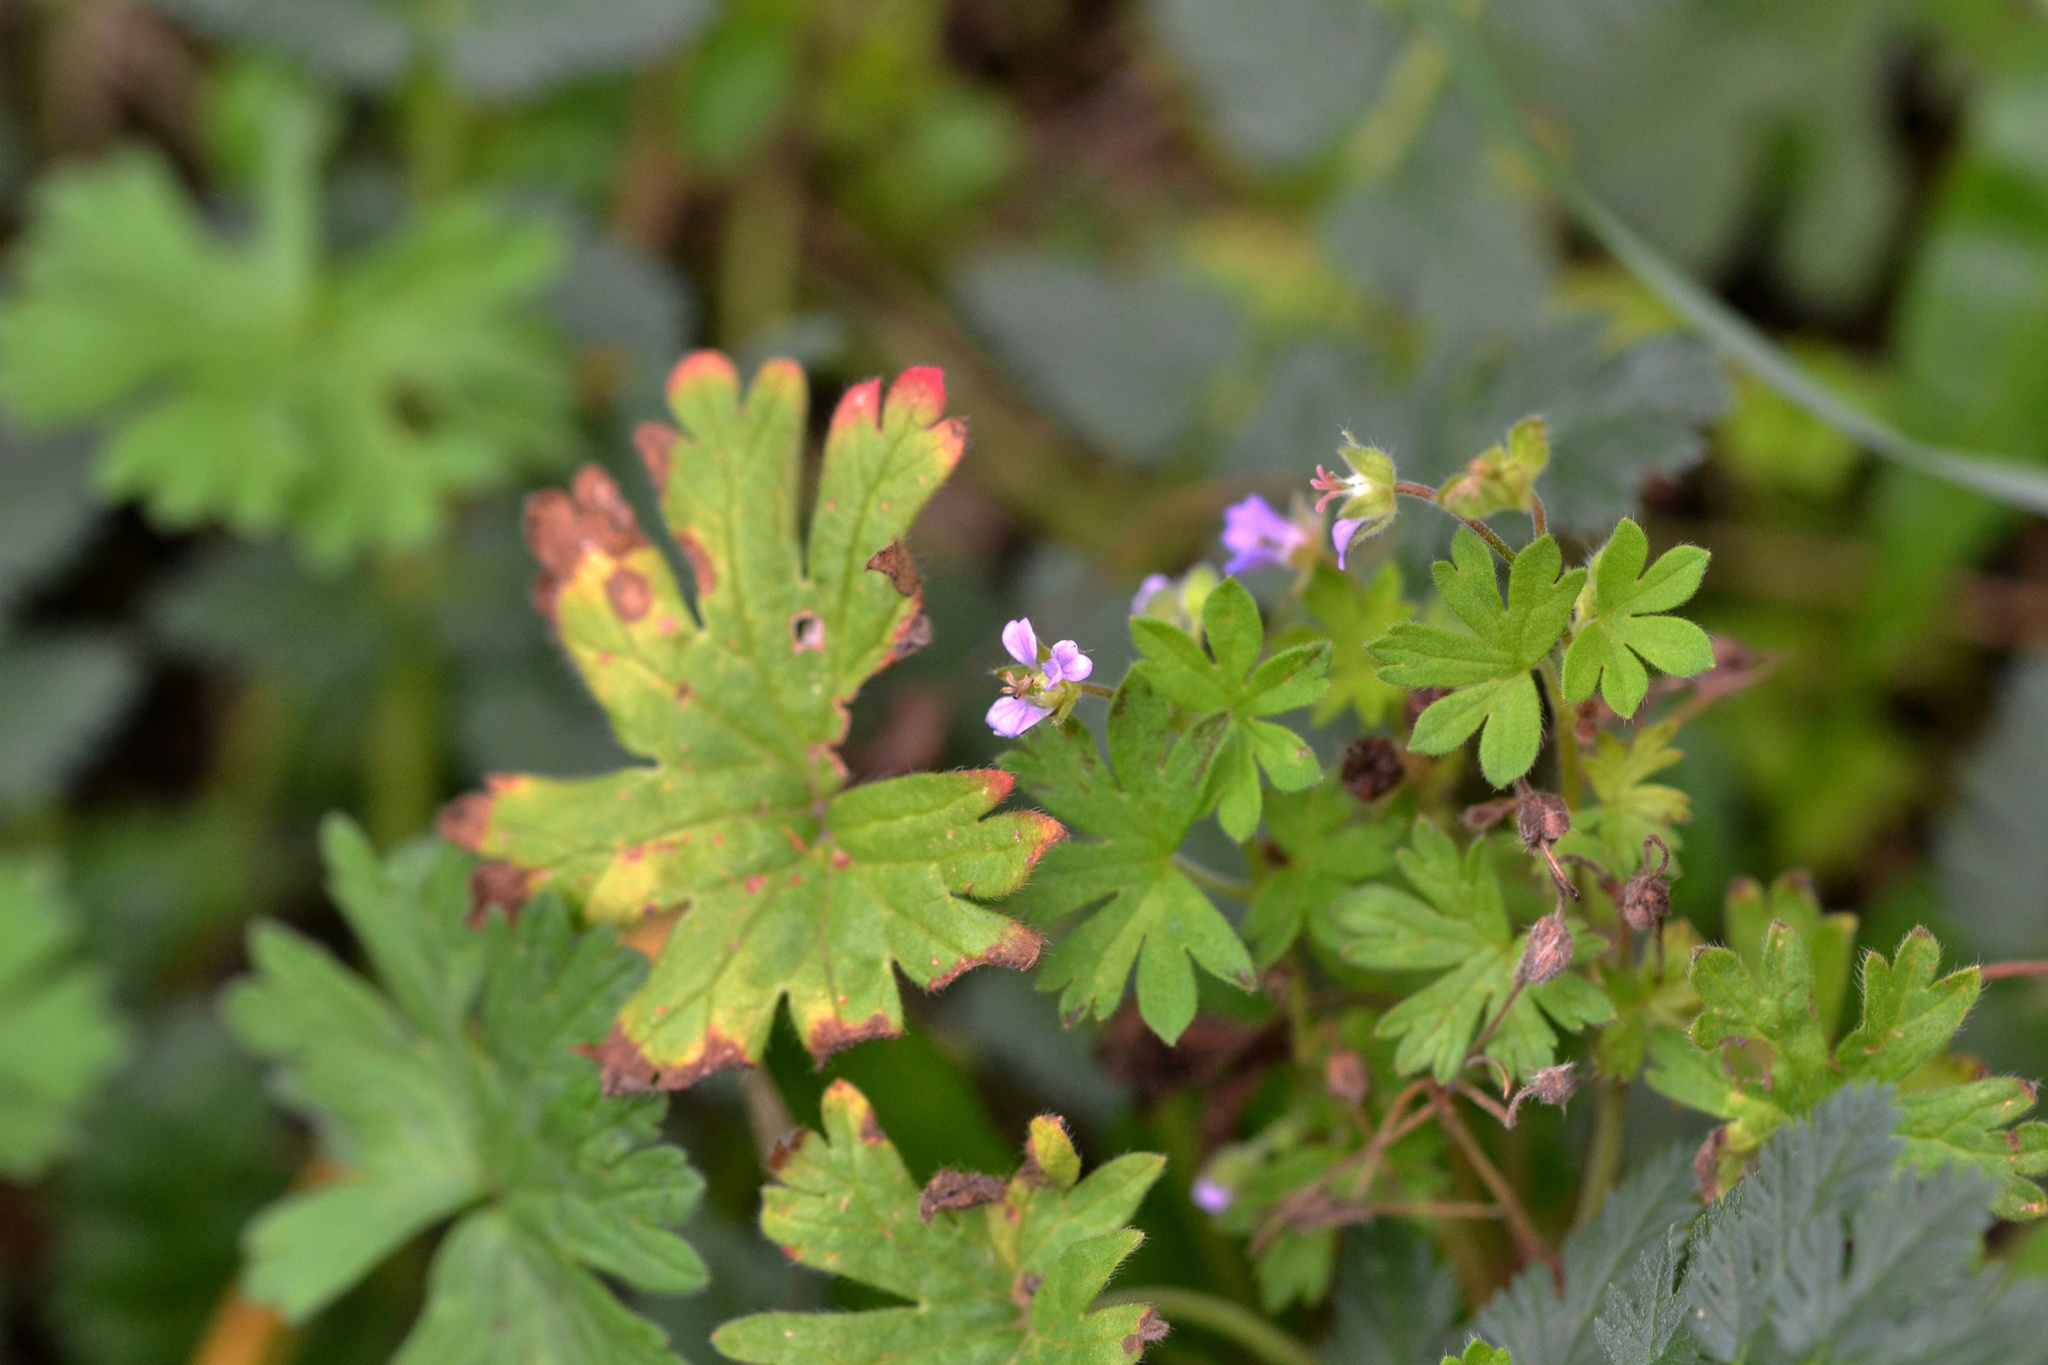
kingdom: Plantae
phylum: Tracheophyta
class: Magnoliopsida
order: Geraniales
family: Geraniaceae
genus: Geranium
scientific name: Geranium pusillum
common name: Small geranium
